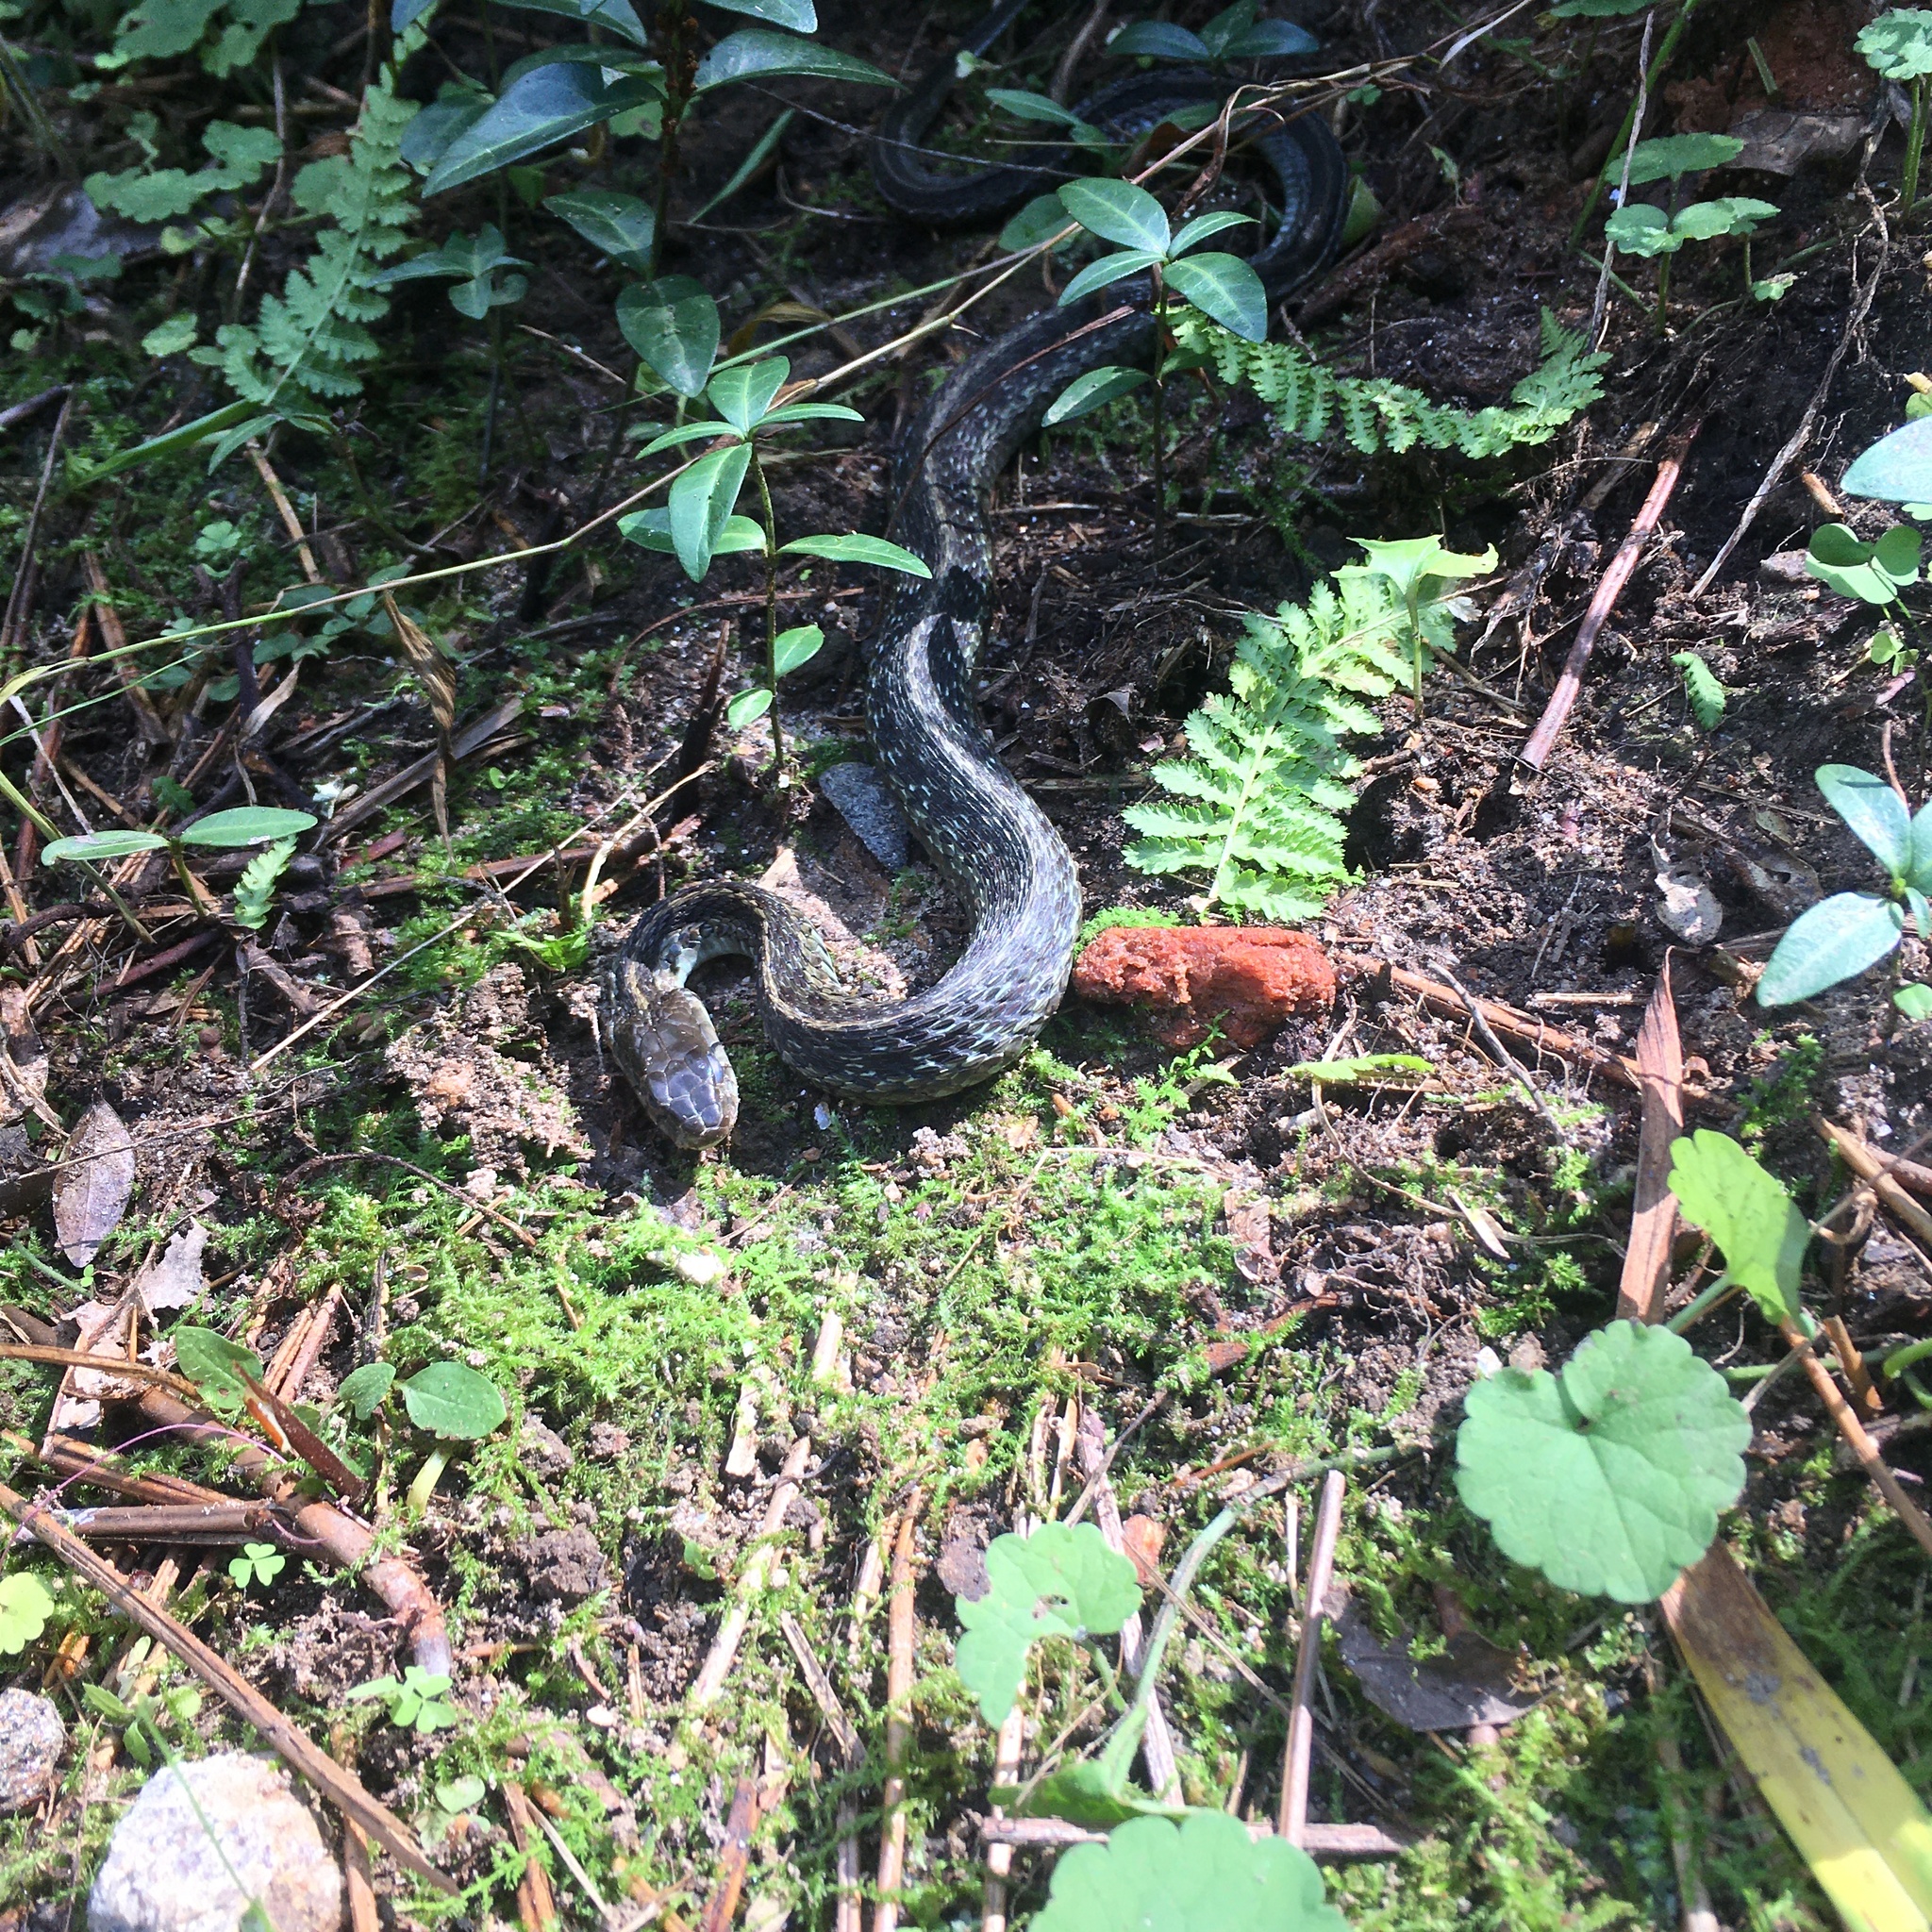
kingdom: Animalia
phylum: Chordata
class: Squamata
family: Colubridae
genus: Thamnophis
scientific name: Thamnophis sirtalis
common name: Common garter snake
